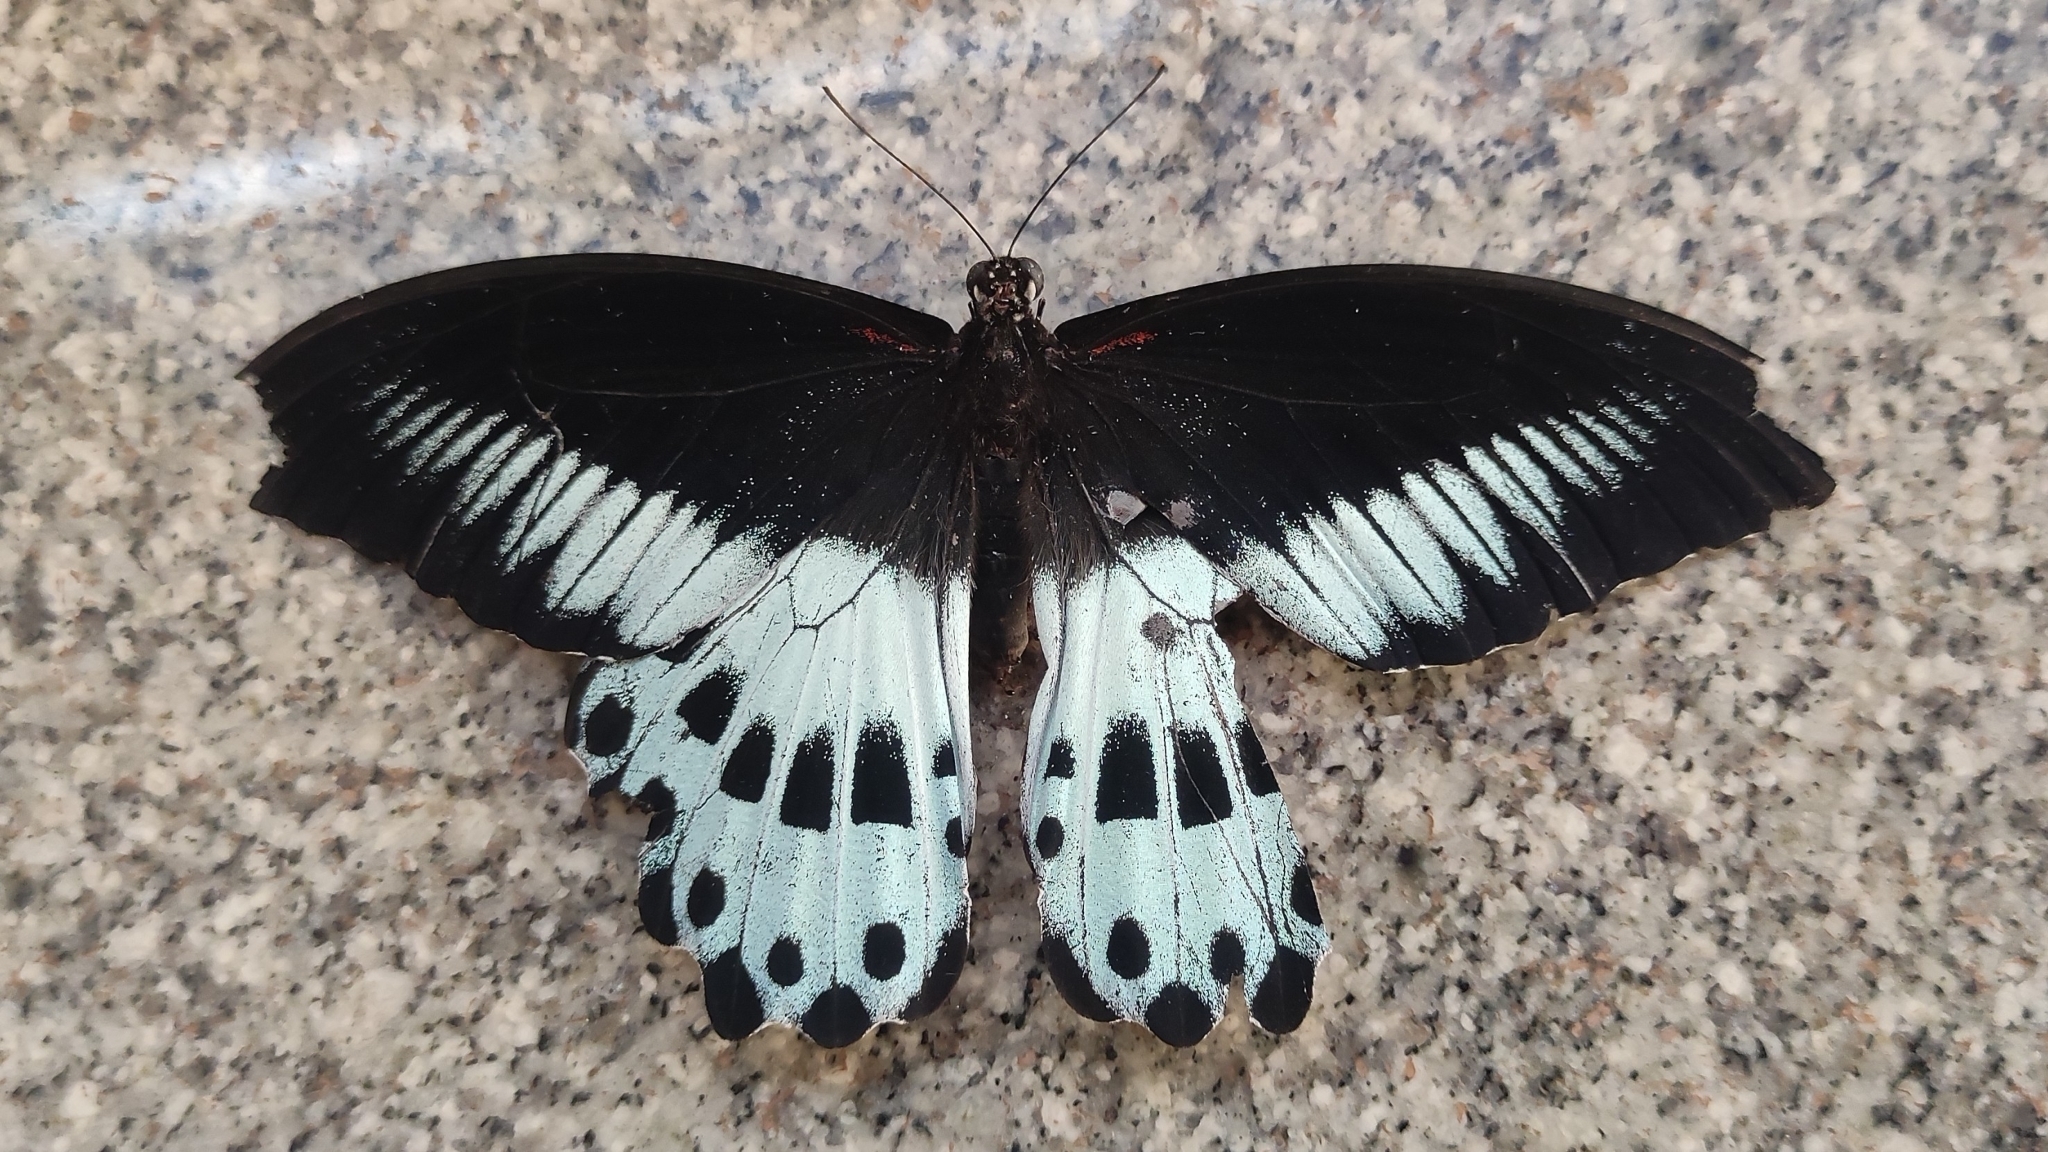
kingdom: Animalia
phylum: Arthropoda
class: Insecta
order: Lepidoptera
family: Papilionidae
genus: Papilio
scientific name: Papilio memnon
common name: Great mormon
